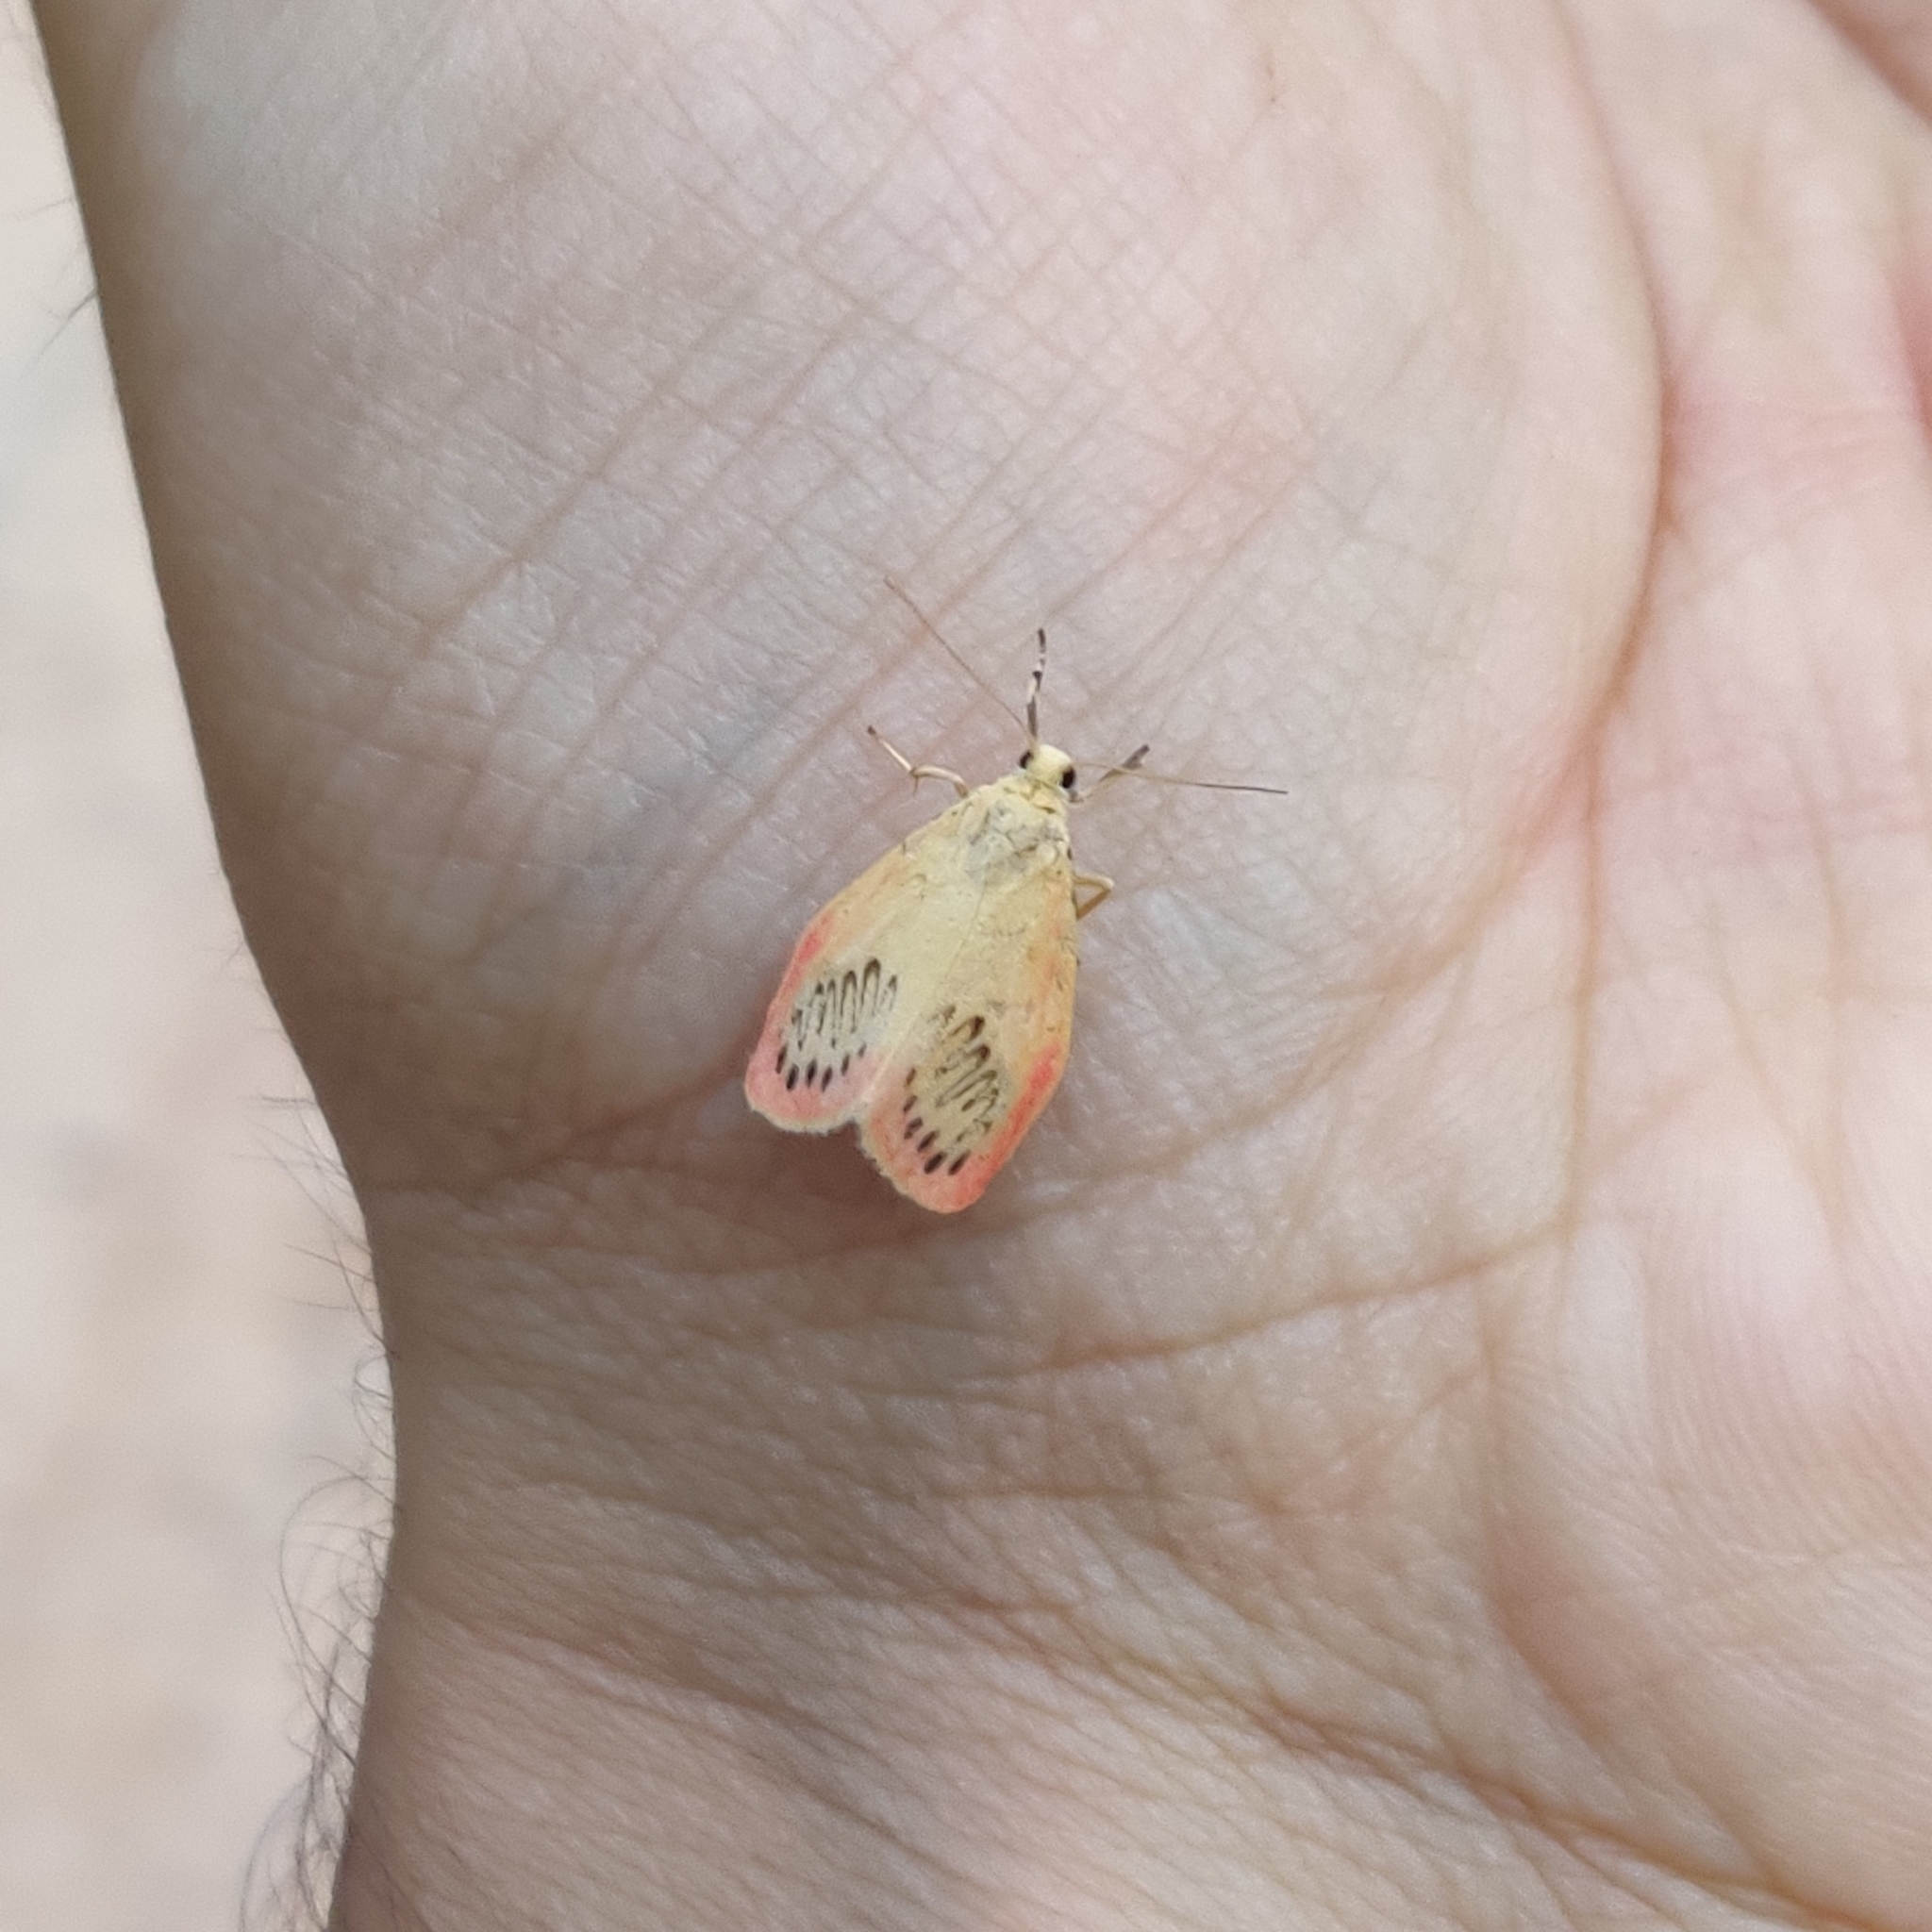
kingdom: Animalia
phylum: Arthropoda
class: Insecta
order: Lepidoptera
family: Erebidae
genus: Miltochrista
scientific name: Miltochrista miniata
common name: Rosy footman
